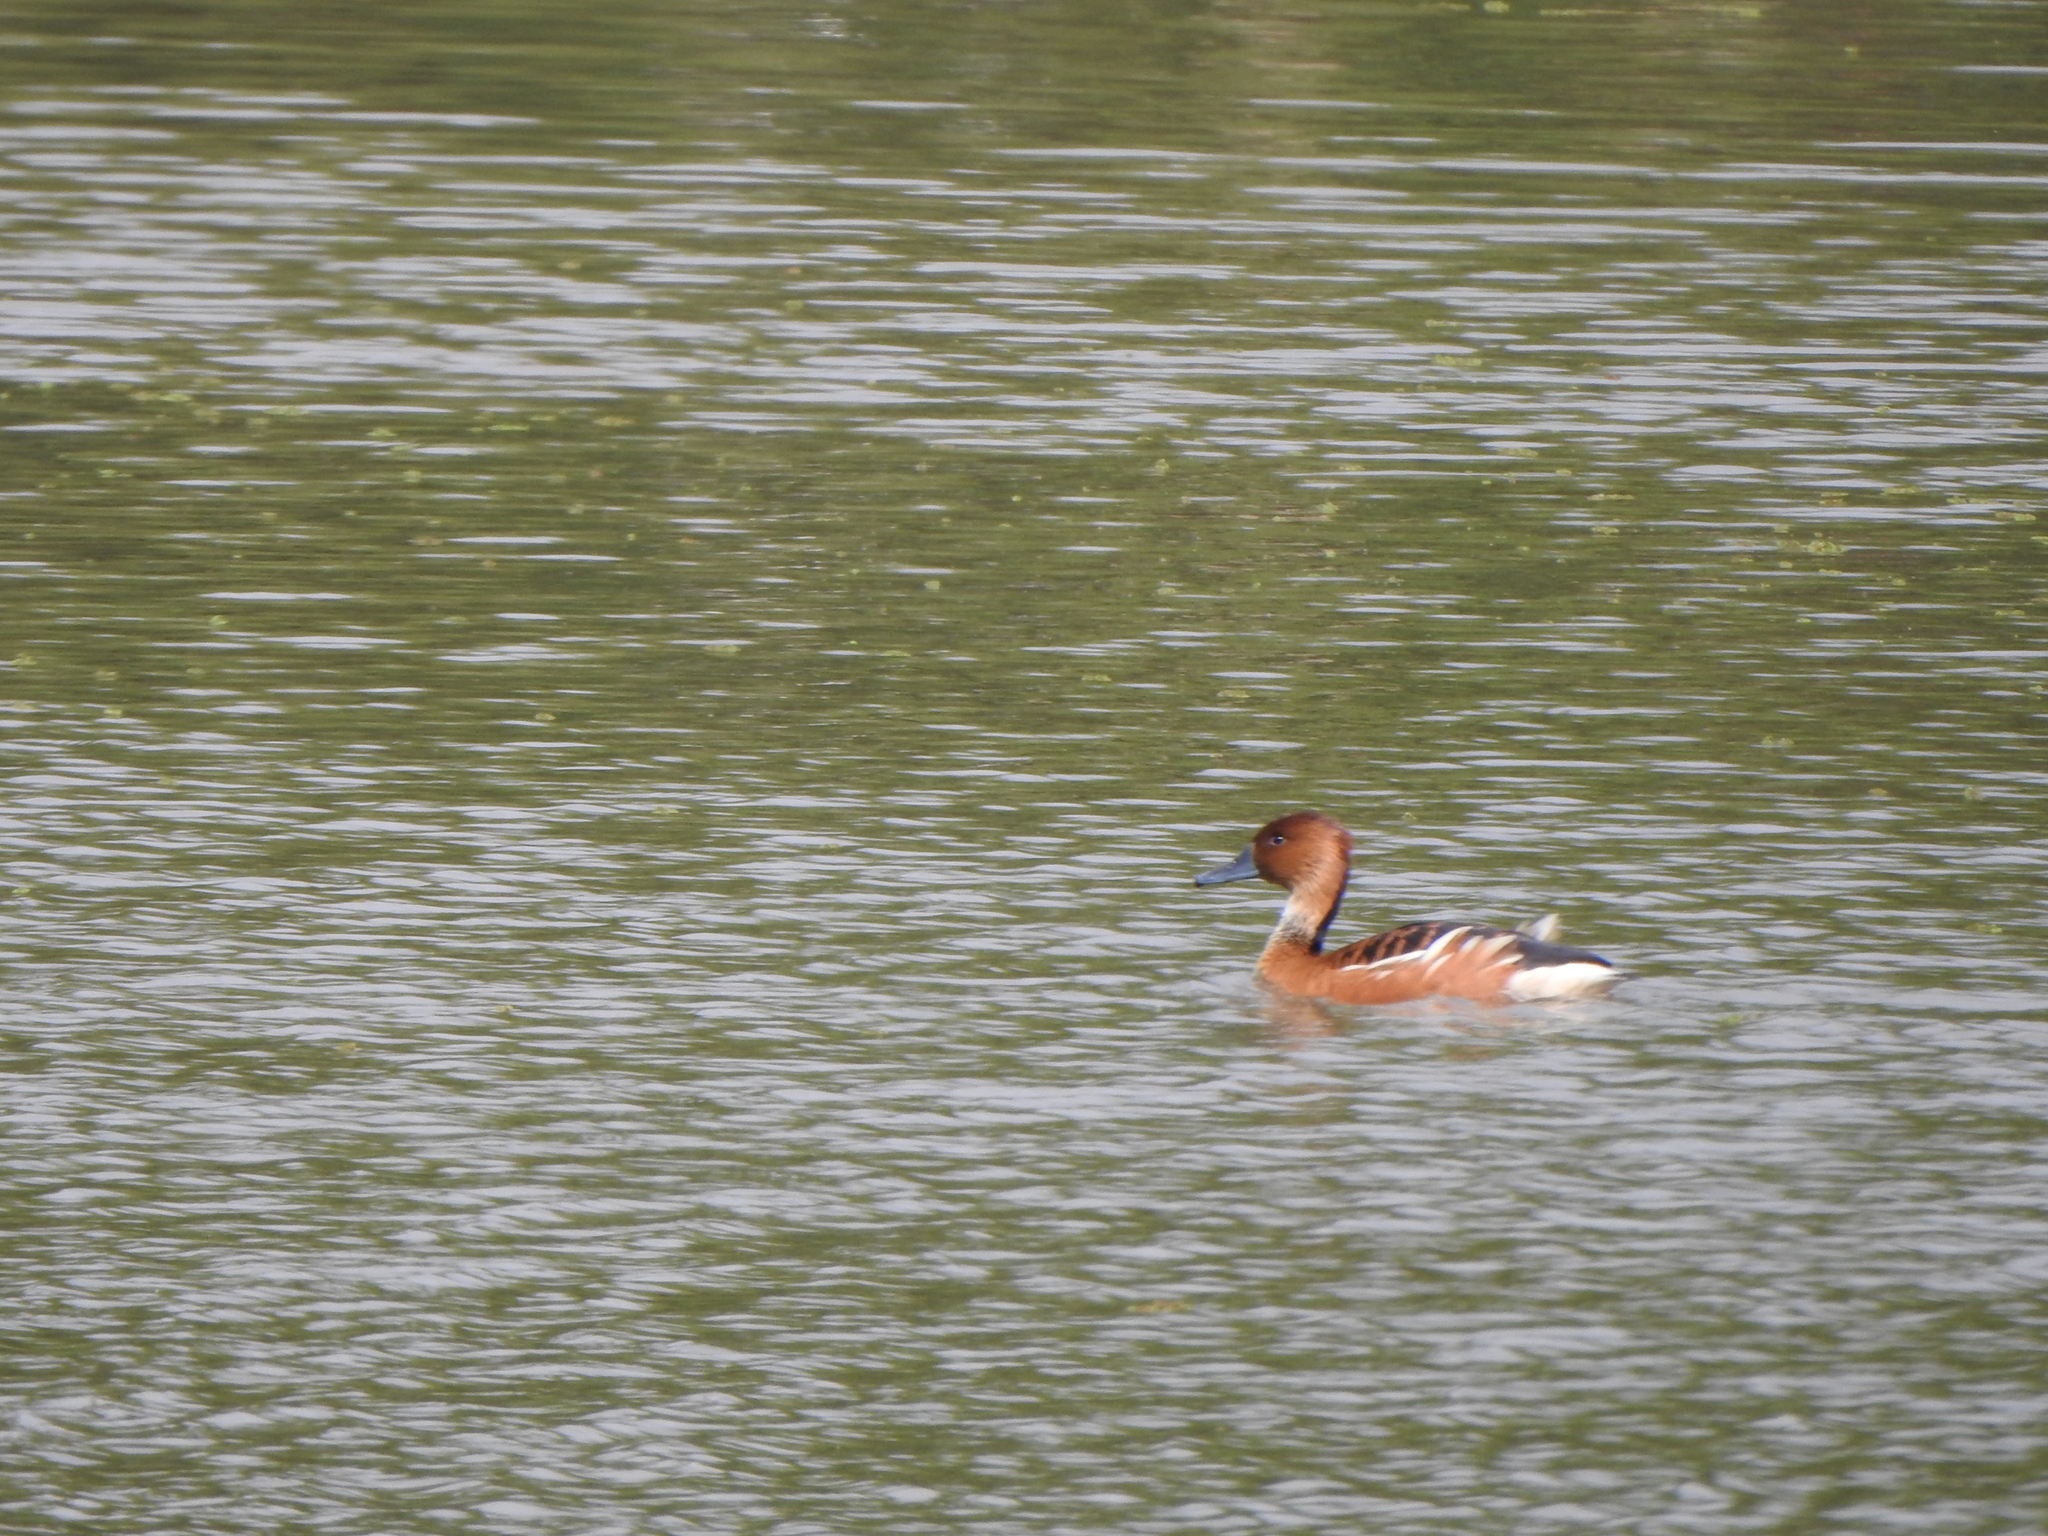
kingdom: Animalia
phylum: Chordata
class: Aves
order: Anseriformes
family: Anatidae
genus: Dendrocygna
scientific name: Dendrocygna bicolor
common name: Fulvous whistling duck
